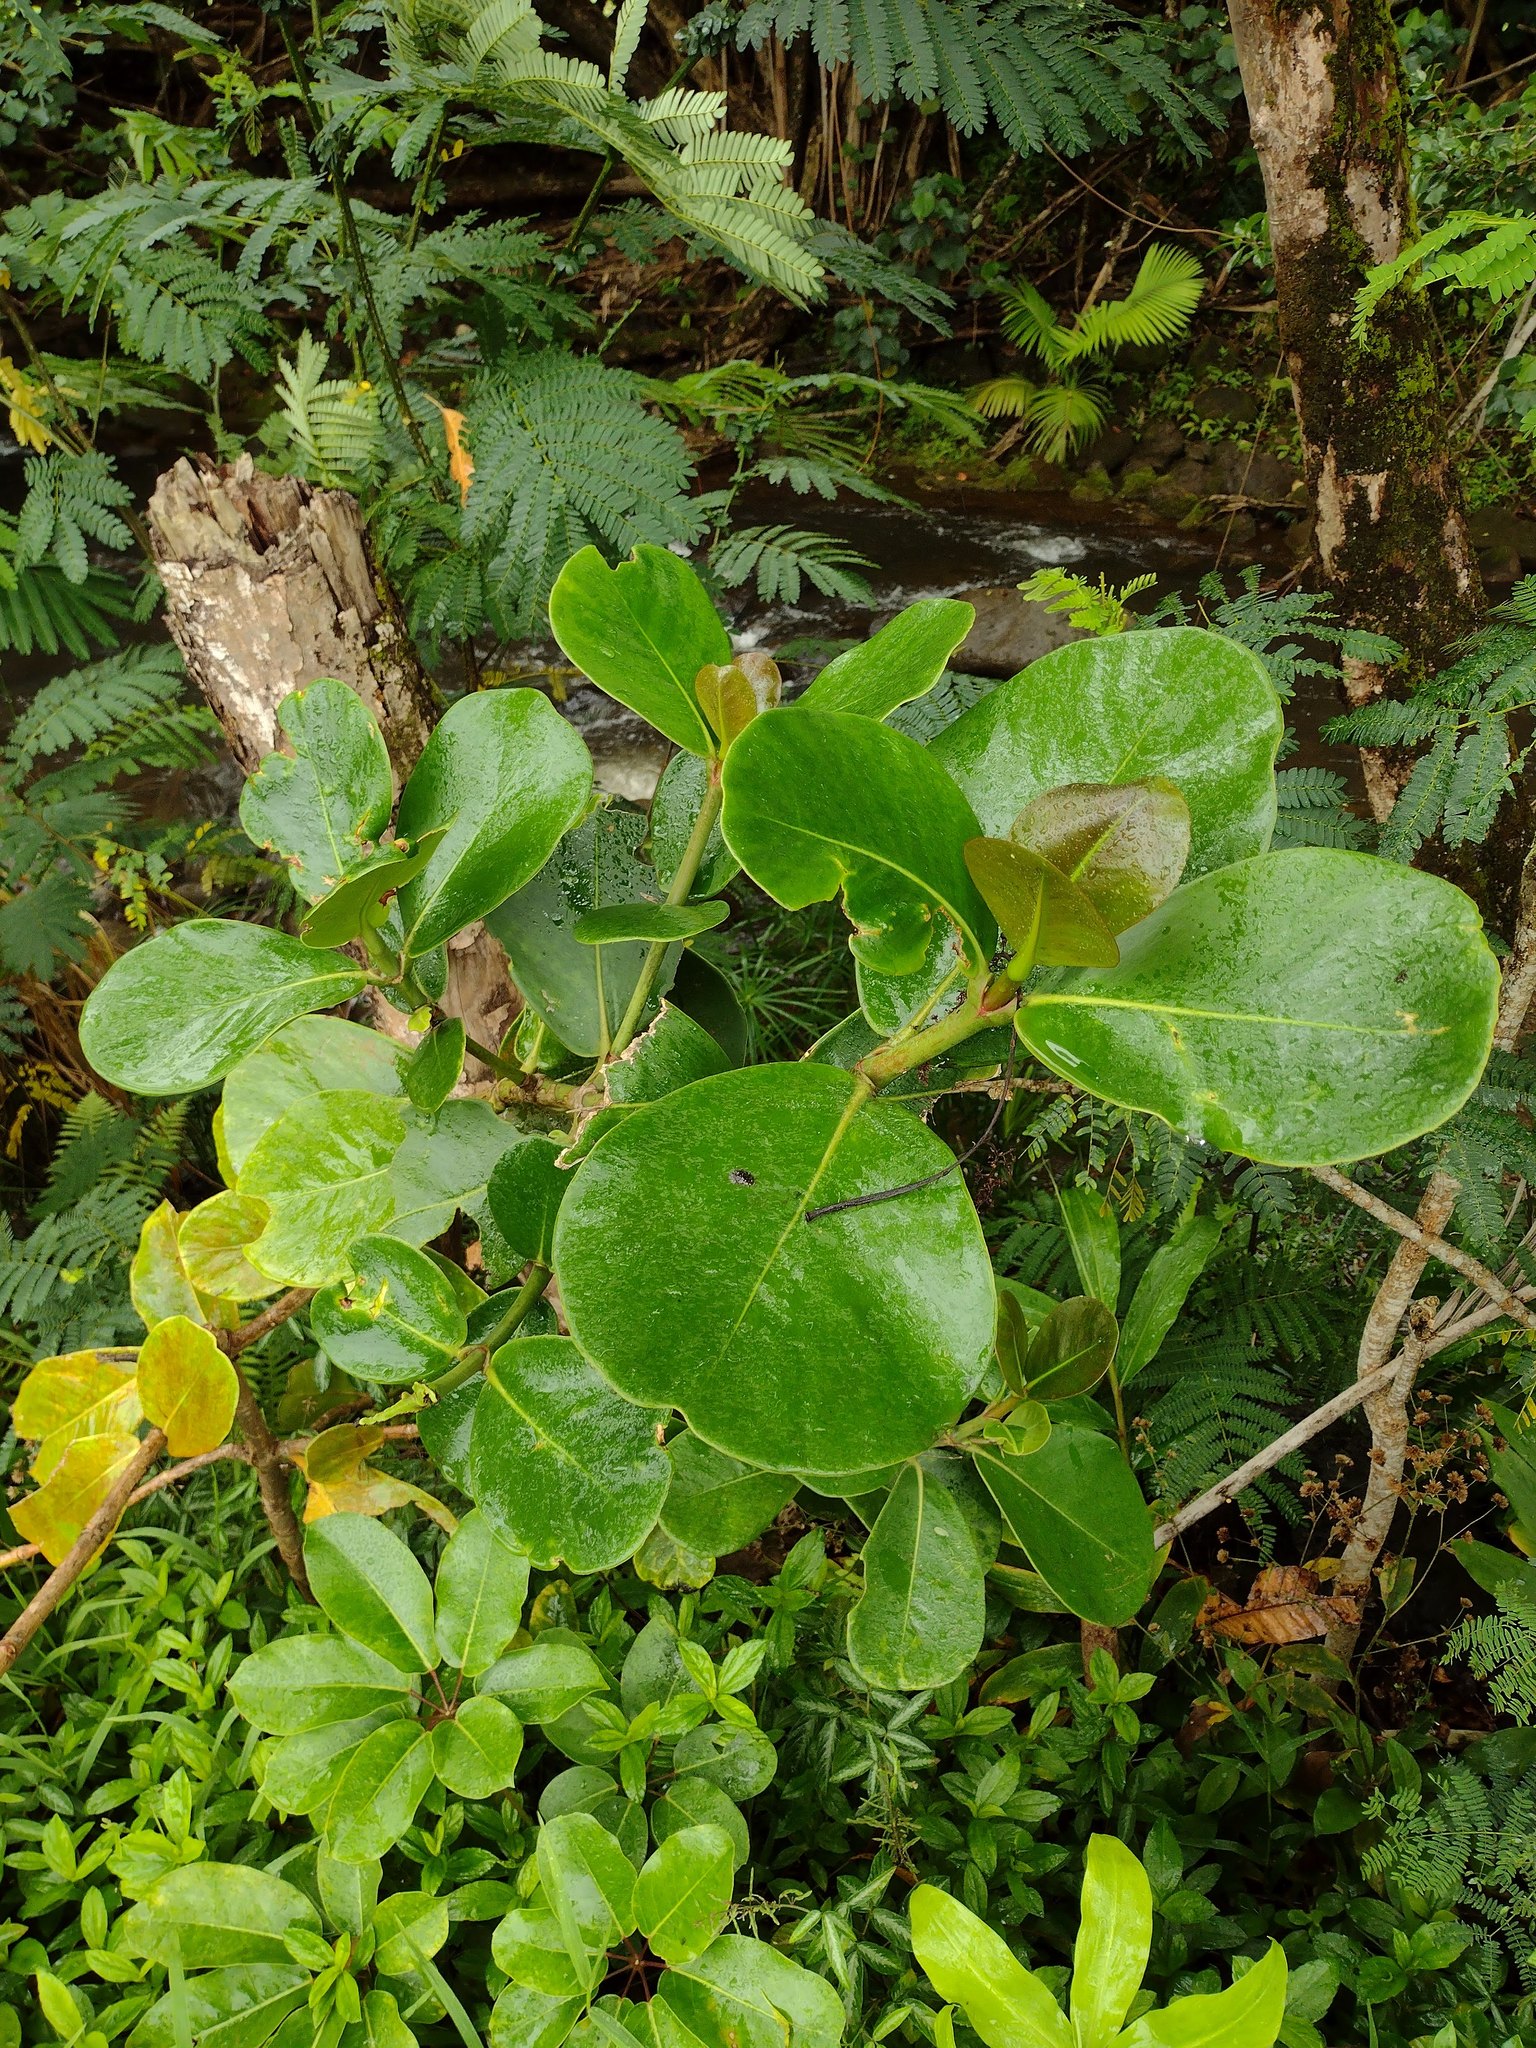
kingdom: Plantae
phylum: Tracheophyta
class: Magnoliopsida
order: Malpighiales
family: Clusiaceae
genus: Clusia
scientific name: Clusia rosea
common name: Scotch attorney
